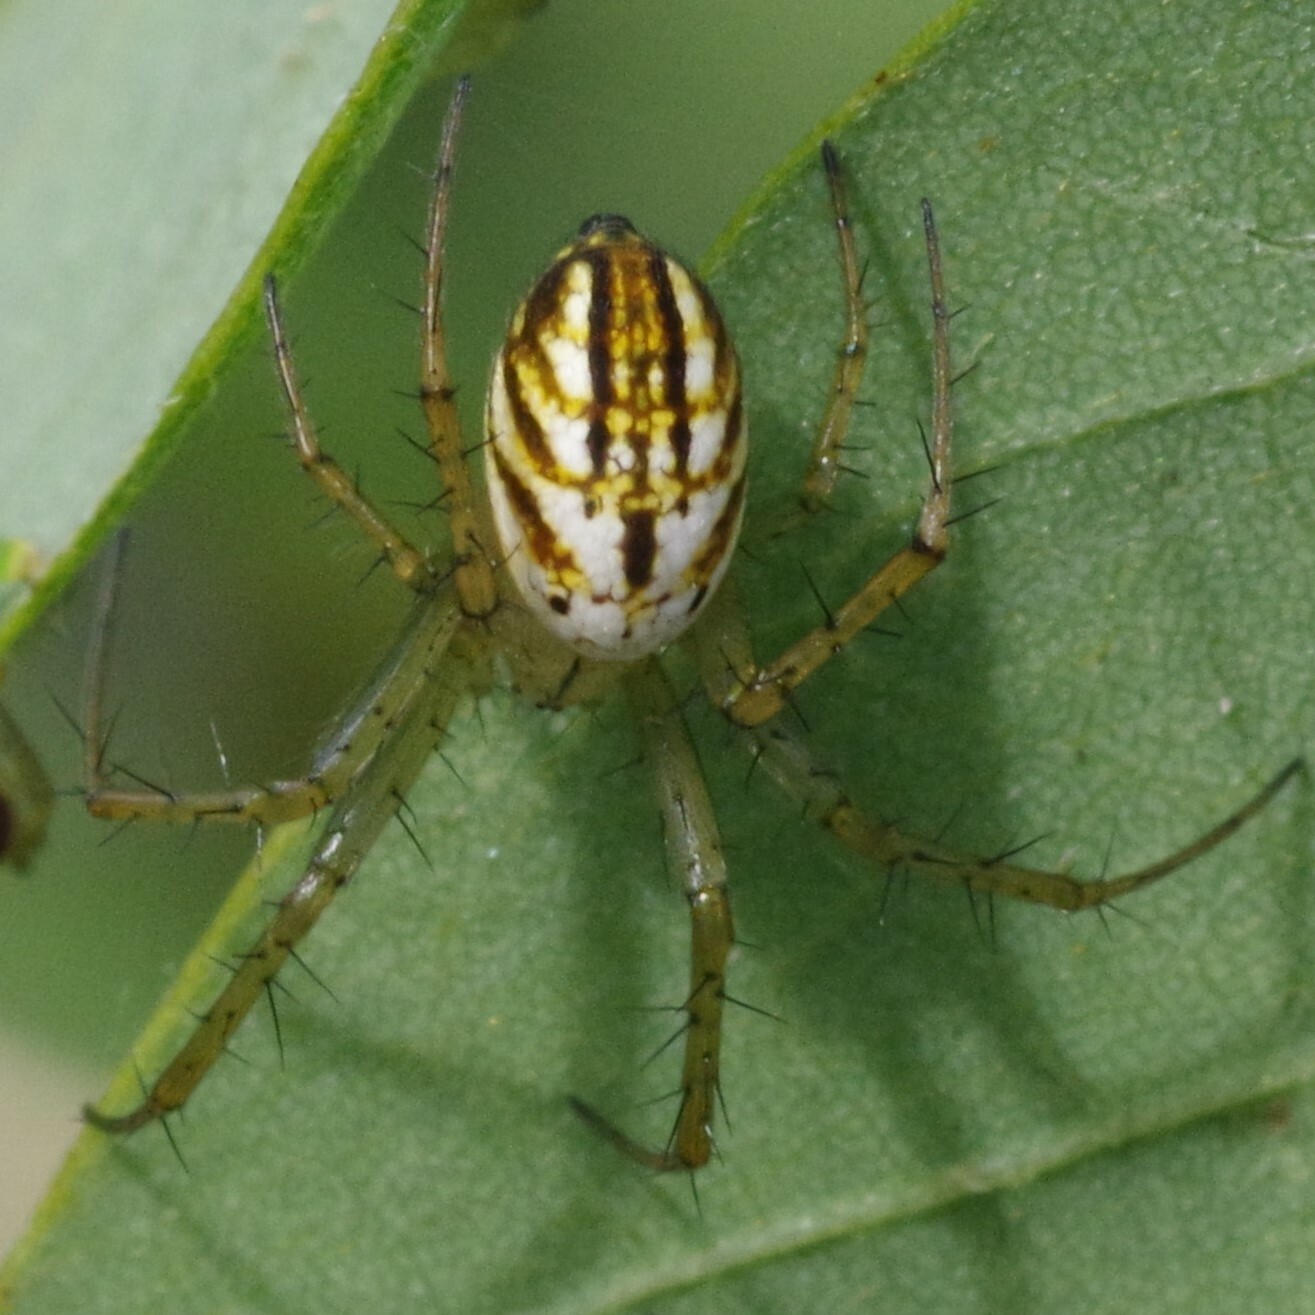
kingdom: Animalia
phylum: Arthropoda
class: Arachnida
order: Araneae
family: Araneidae
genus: Mangora
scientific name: Mangora gibberosa
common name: Lined orbweaver
